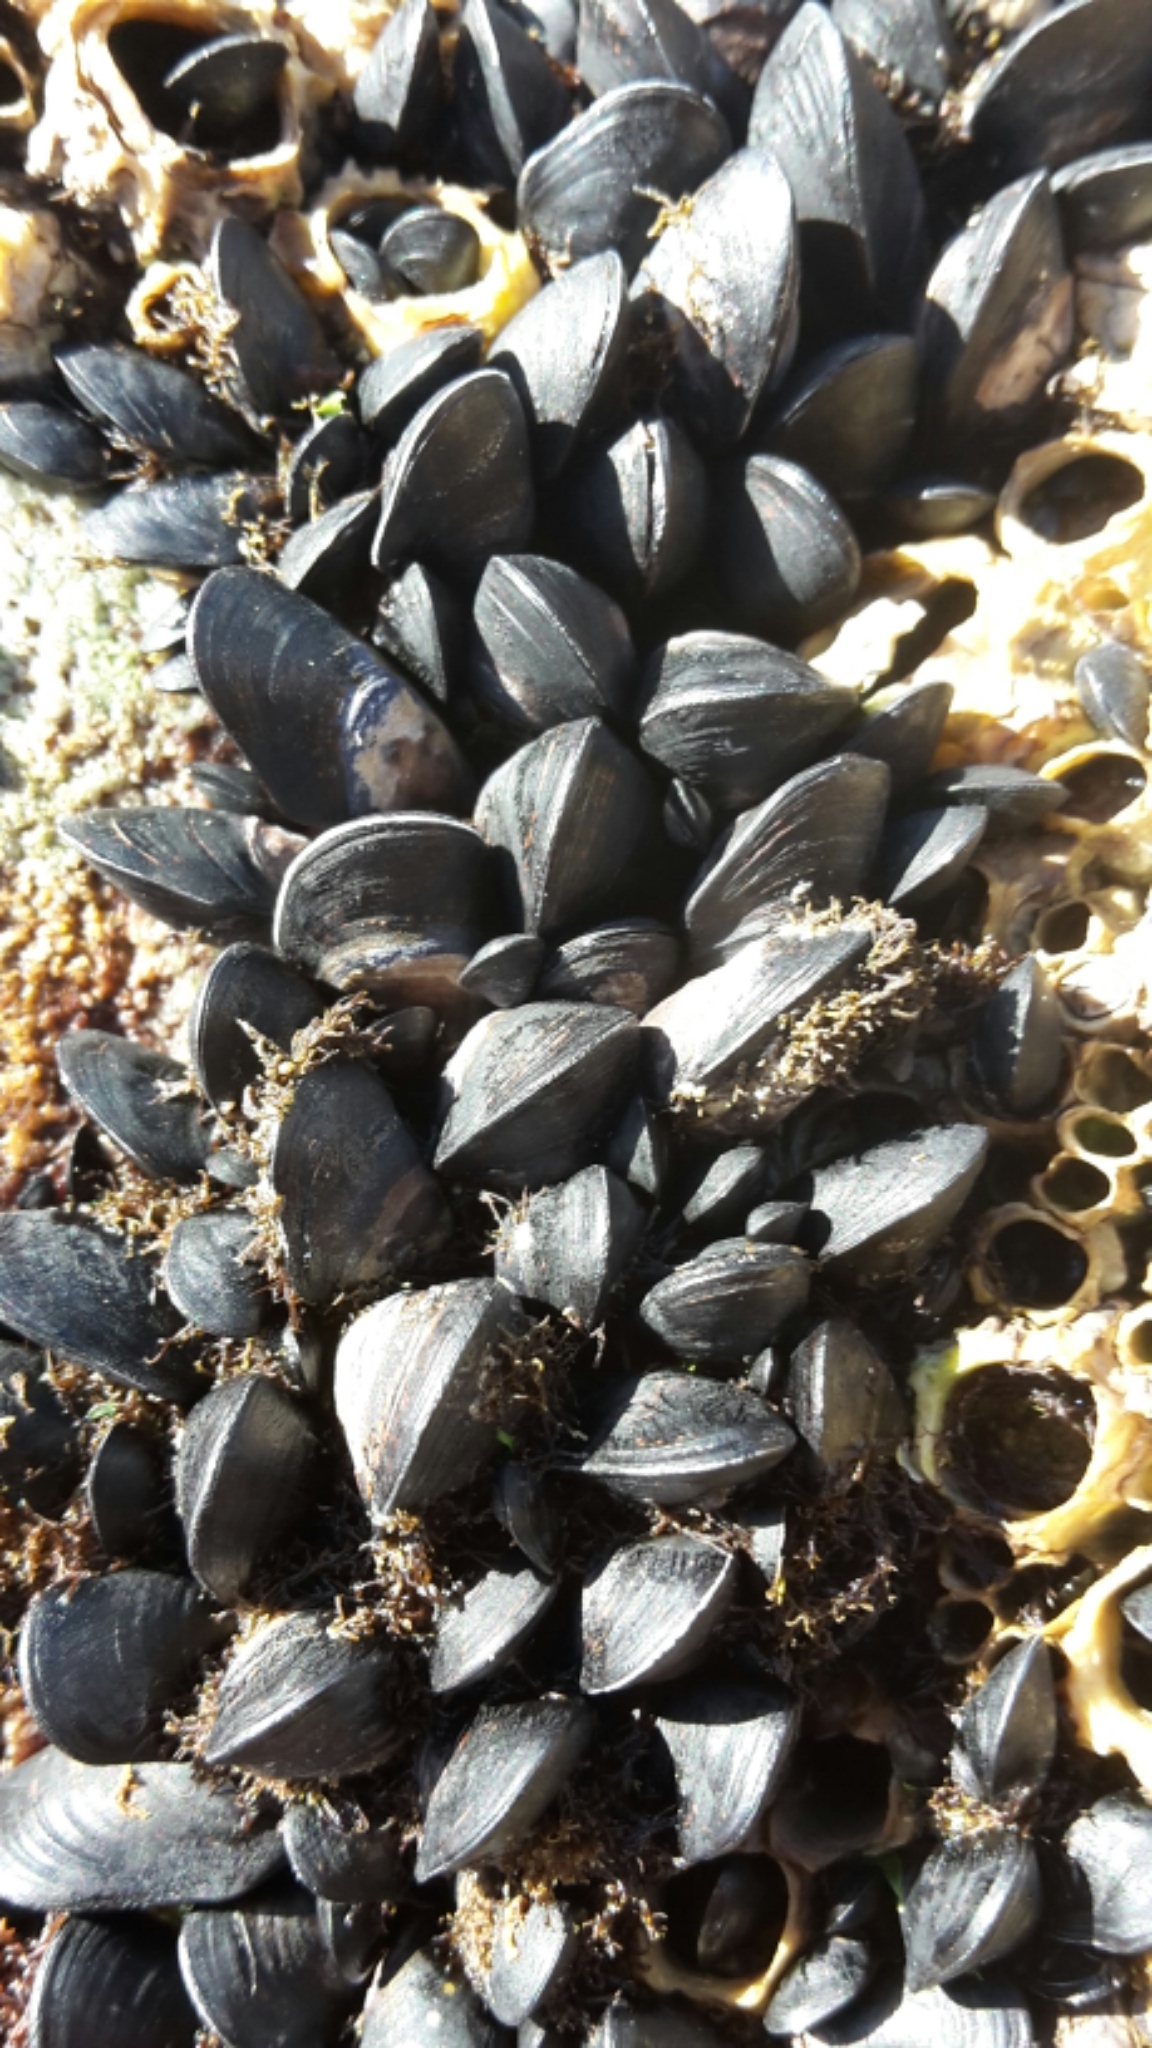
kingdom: Animalia
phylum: Mollusca
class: Bivalvia
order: Mytilida
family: Mytilidae
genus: Xenostrobus
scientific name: Xenostrobus neozelanicus
